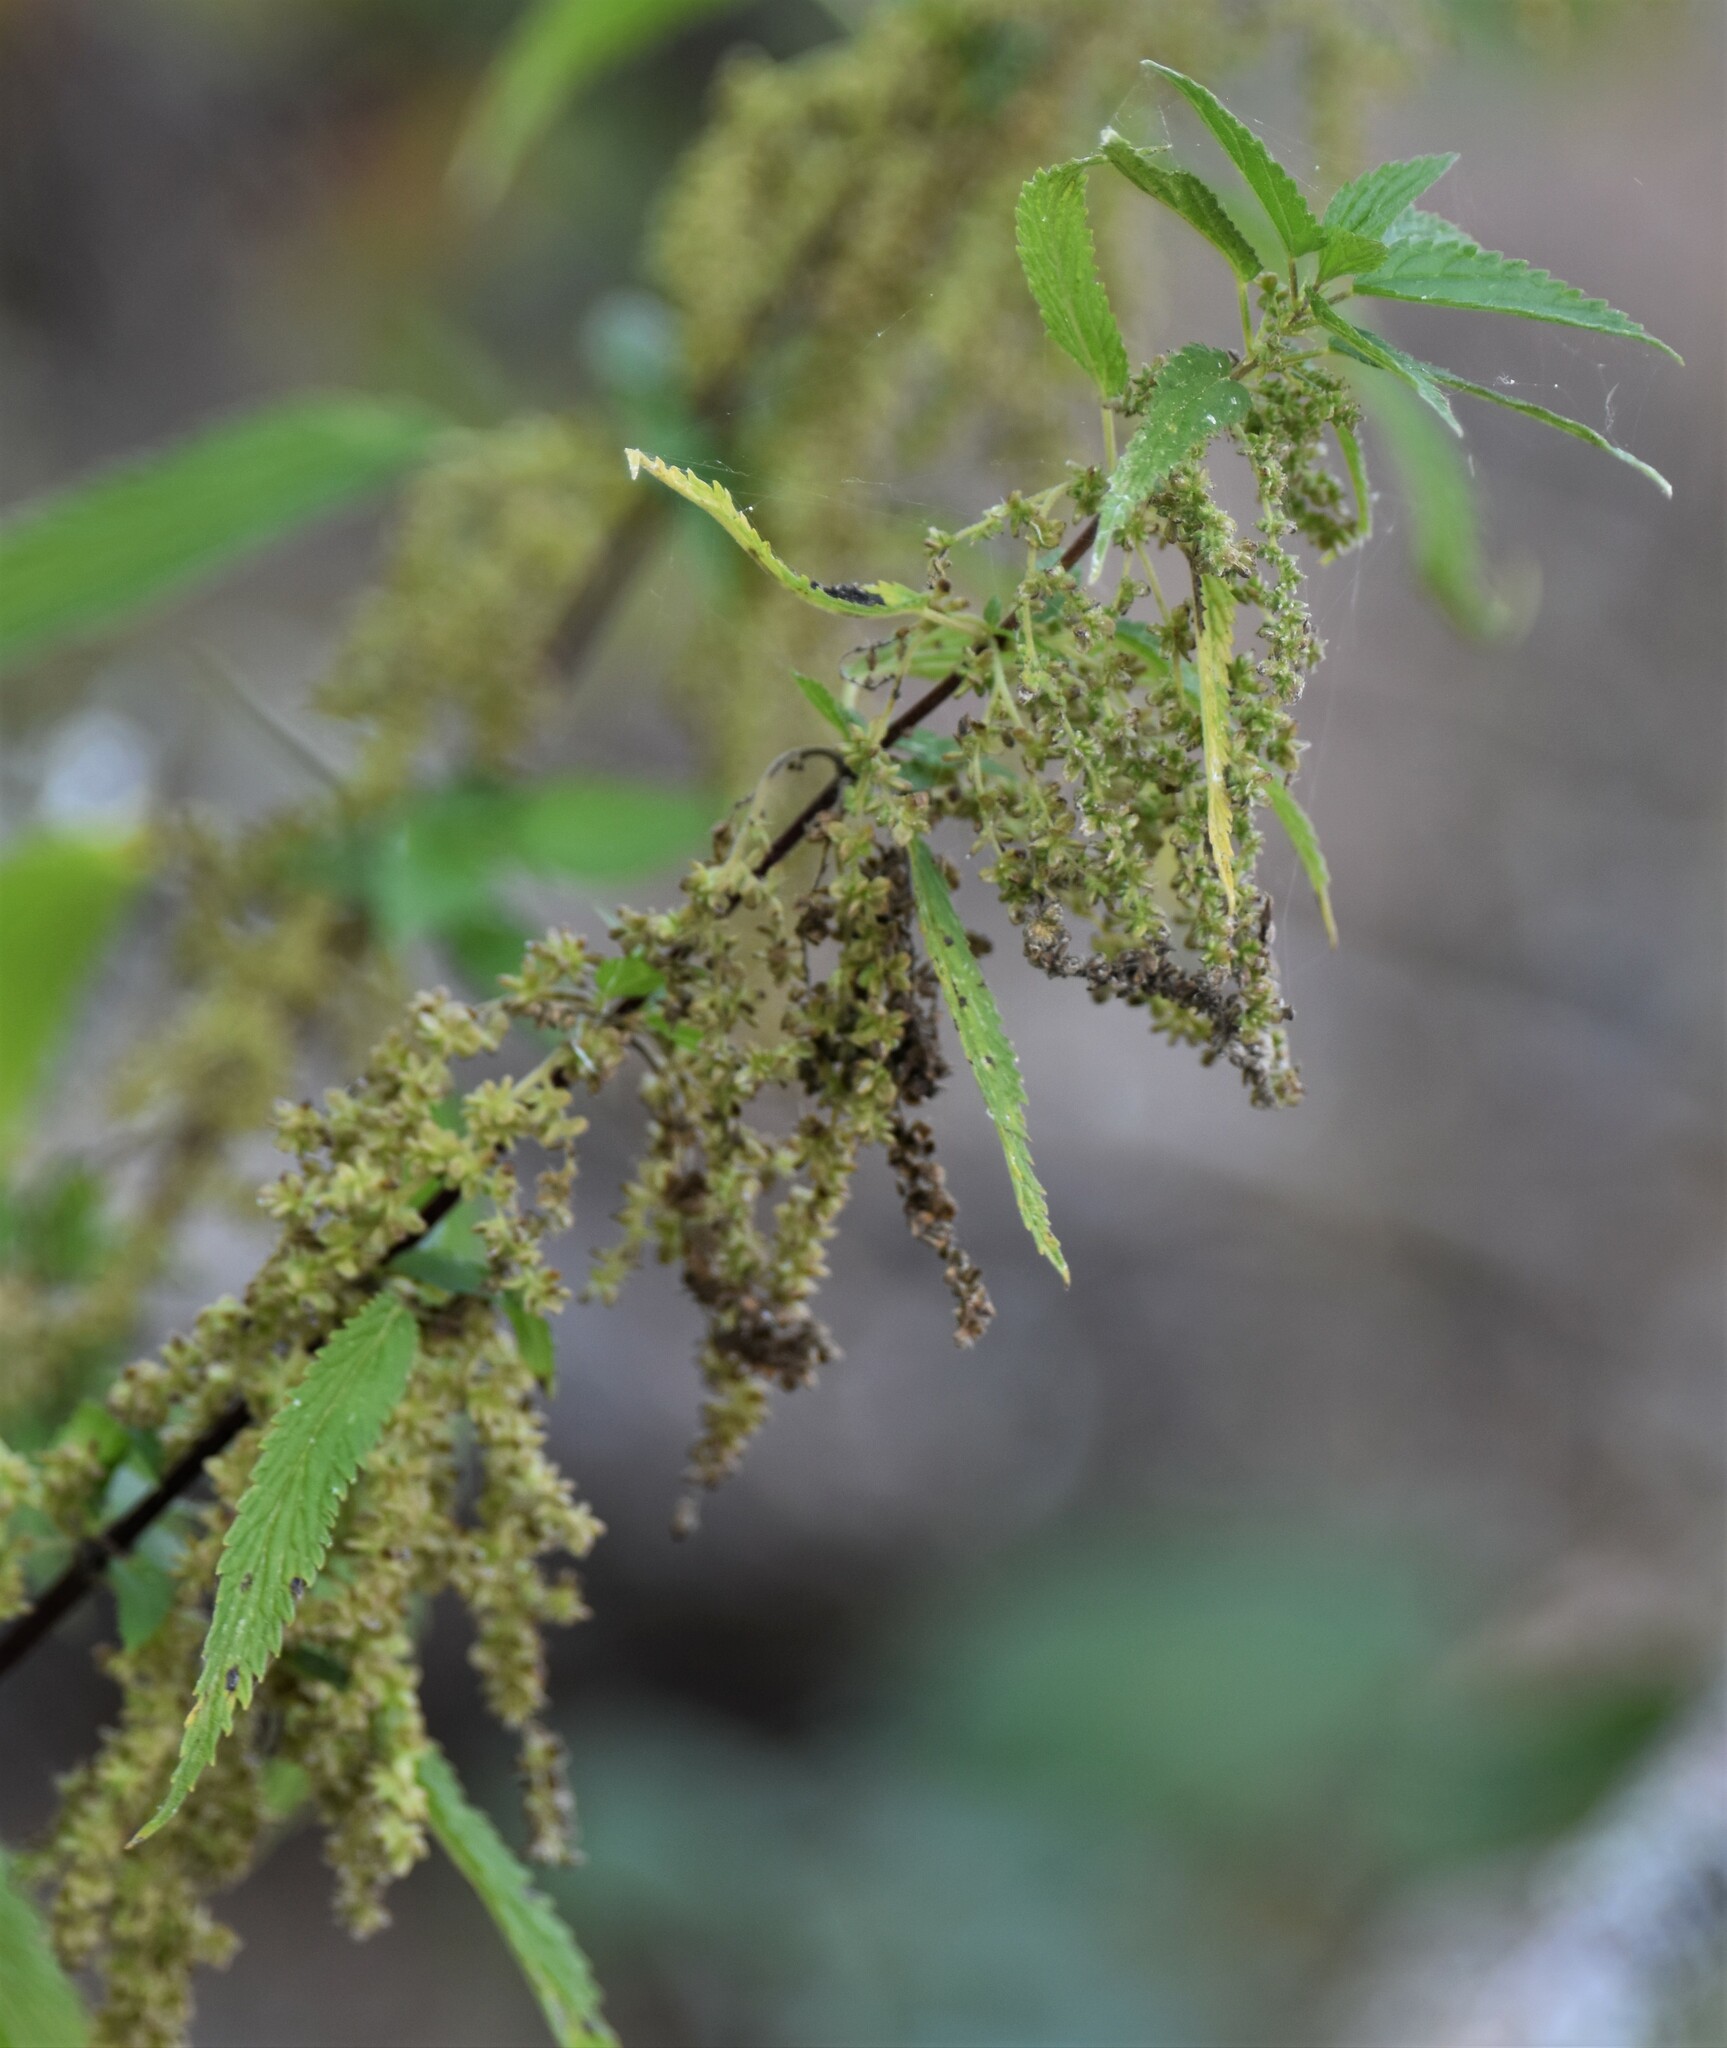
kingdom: Plantae
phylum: Tracheophyta
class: Magnoliopsida
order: Rosales
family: Urticaceae
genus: Urtica
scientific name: Urtica gracilis
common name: Slender stinging nettle
